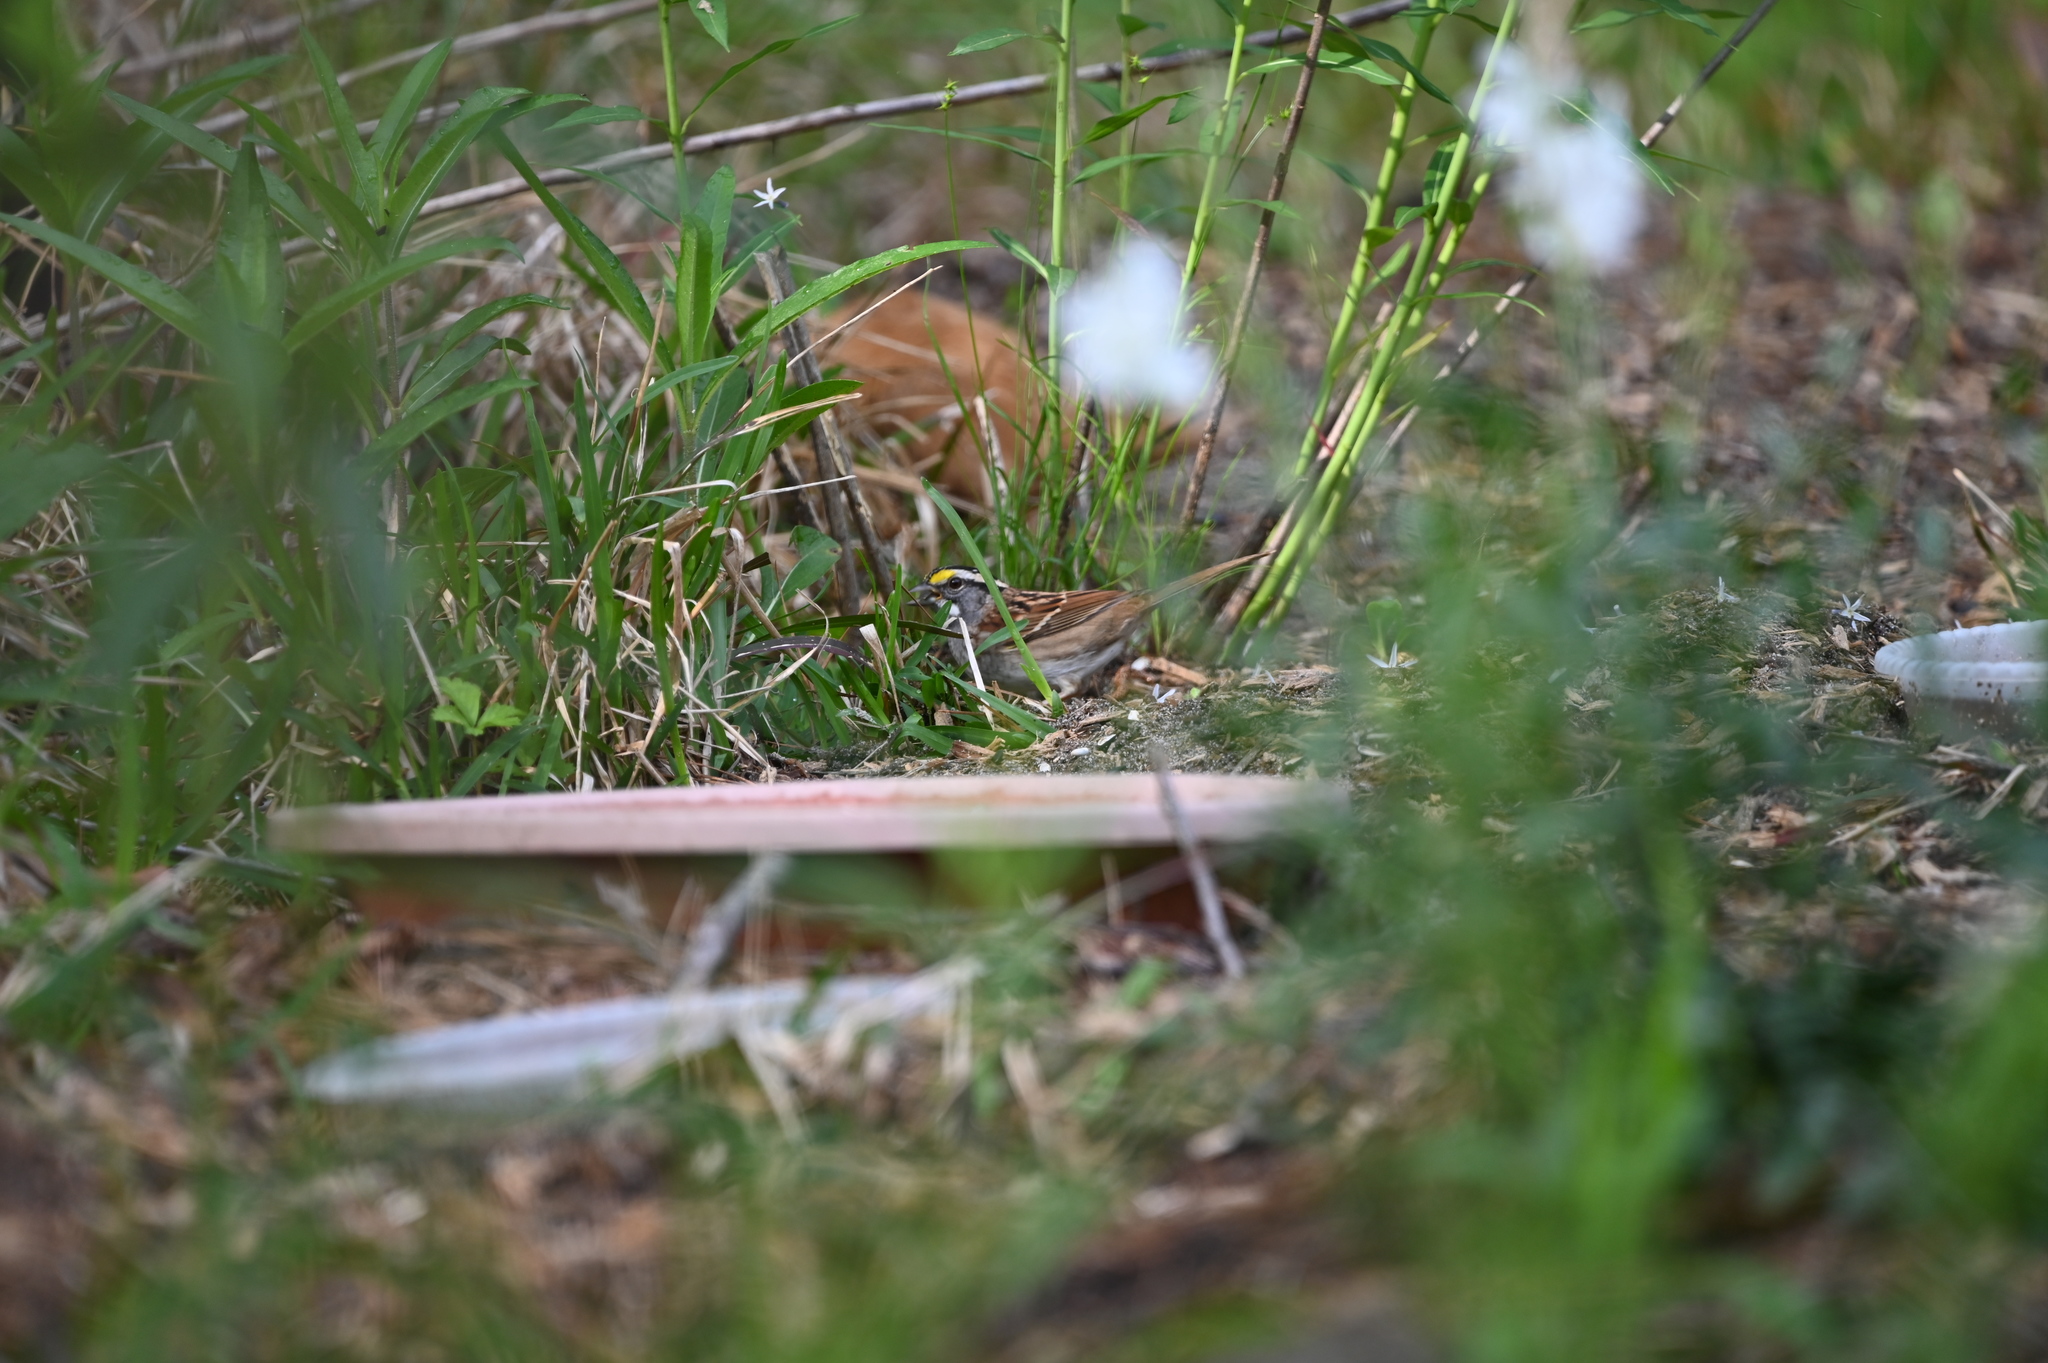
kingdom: Animalia
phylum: Chordata
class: Aves
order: Passeriformes
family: Passerellidae
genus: Zonotrichia
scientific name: Zonotrichia albicollis
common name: White-throated sparrow
